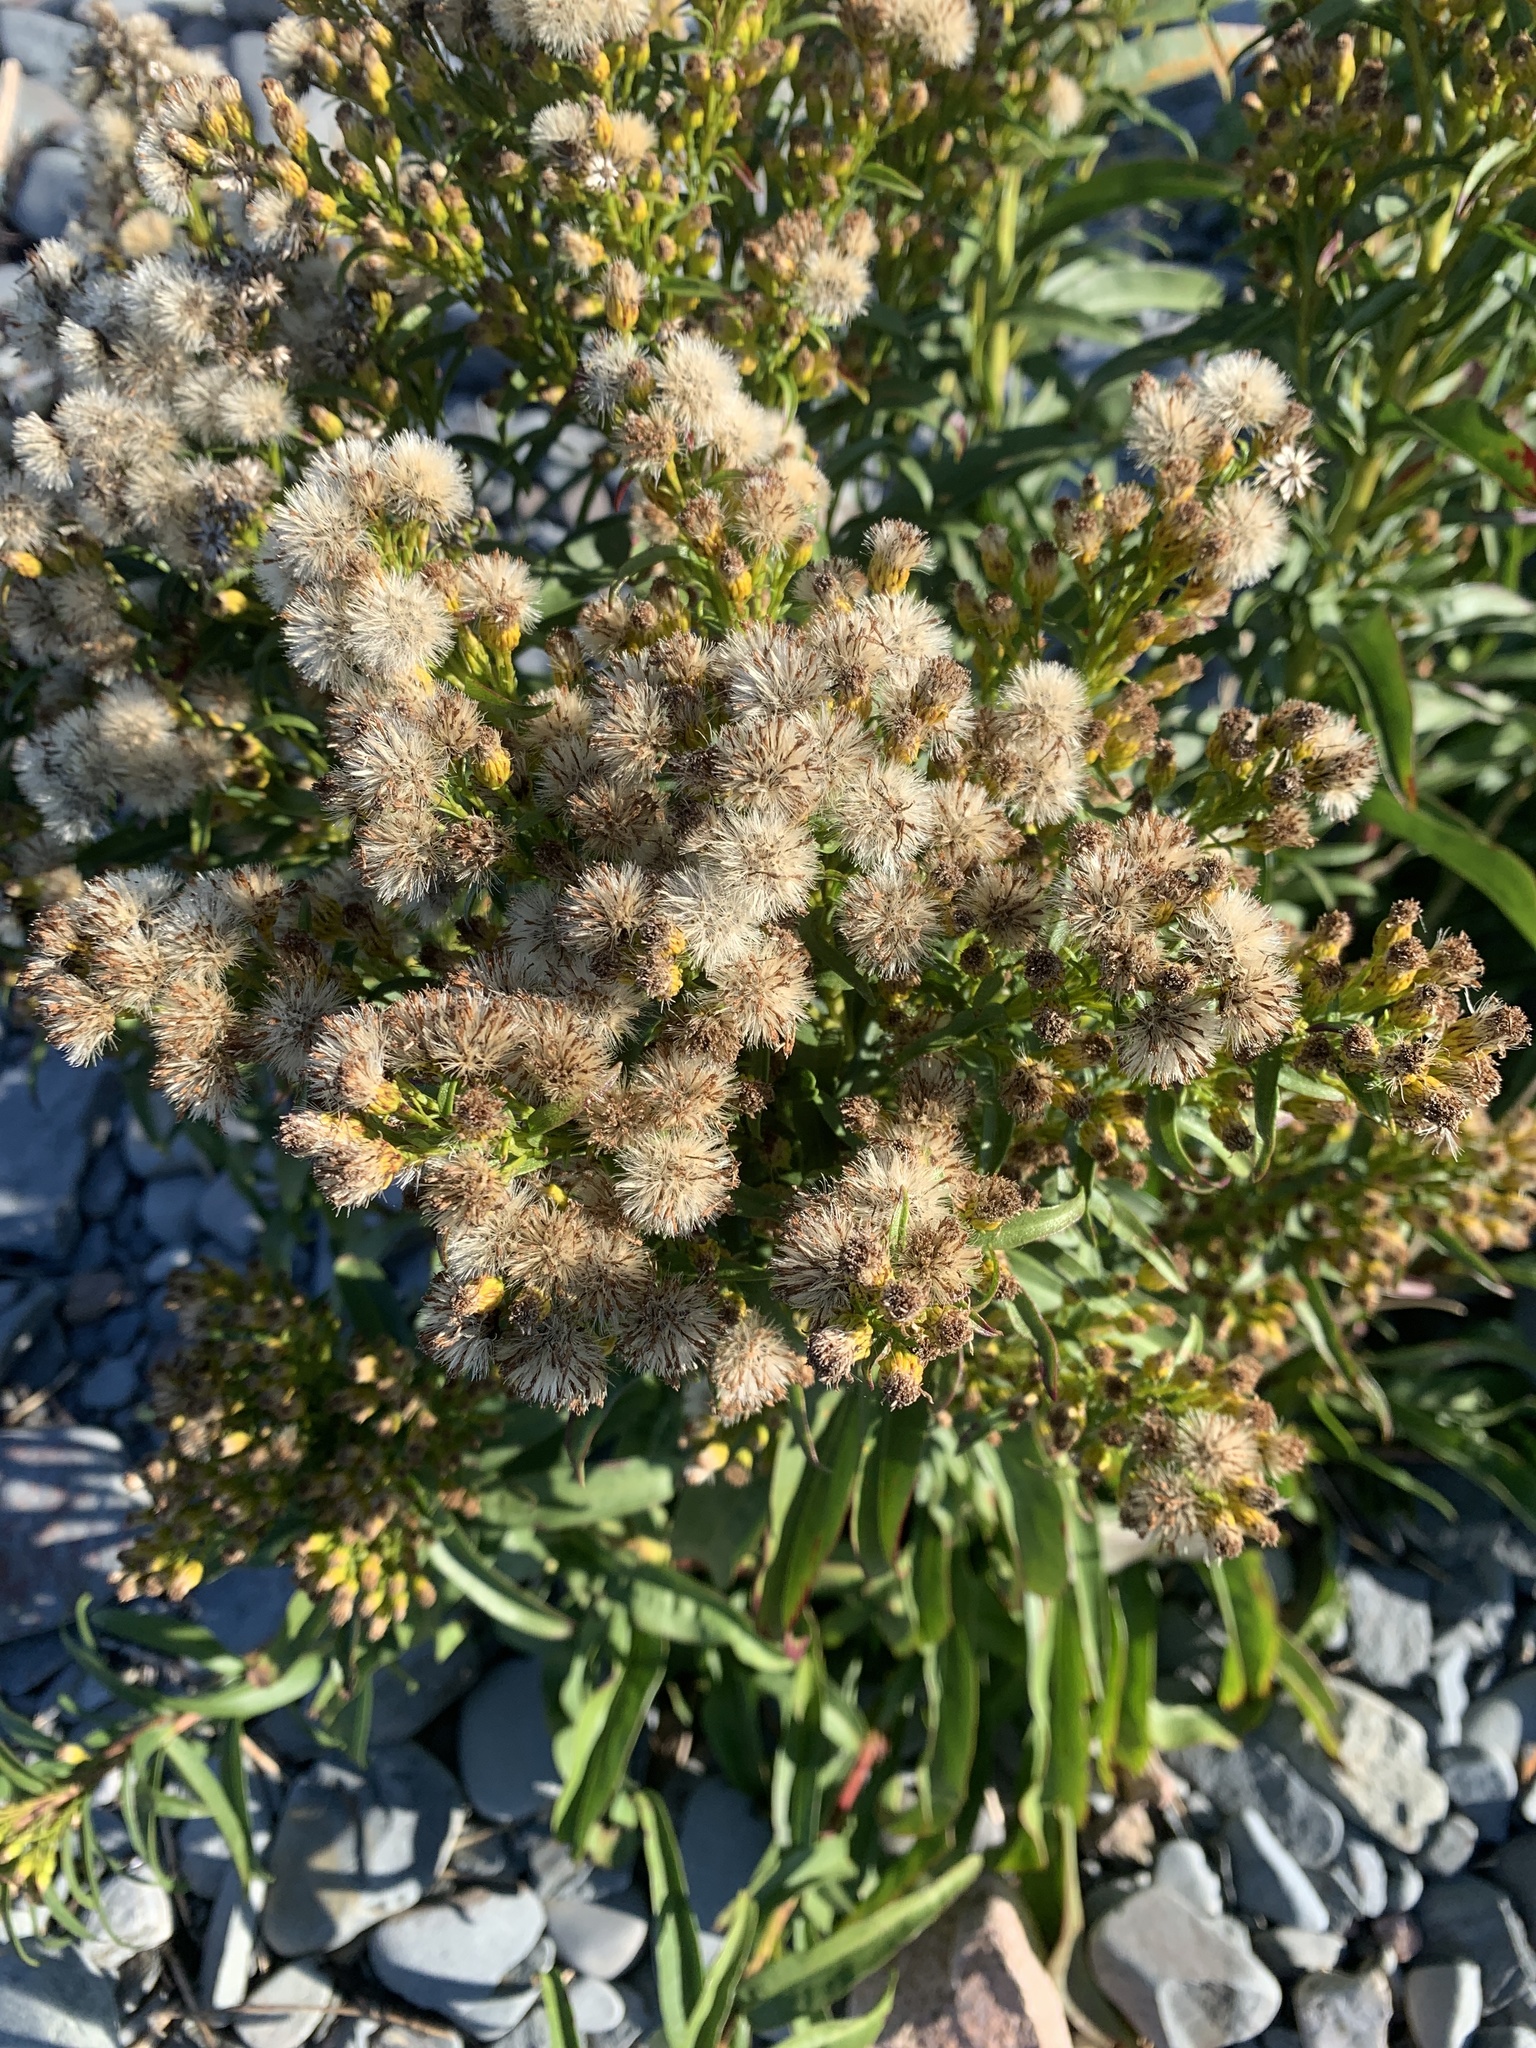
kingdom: Plantae
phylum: Tracheophyta
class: Magnoliopsida
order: Asterales
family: Asteraceae
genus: Solidago
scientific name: Solidago sempervirens
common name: Salt-marsh goldenrod
